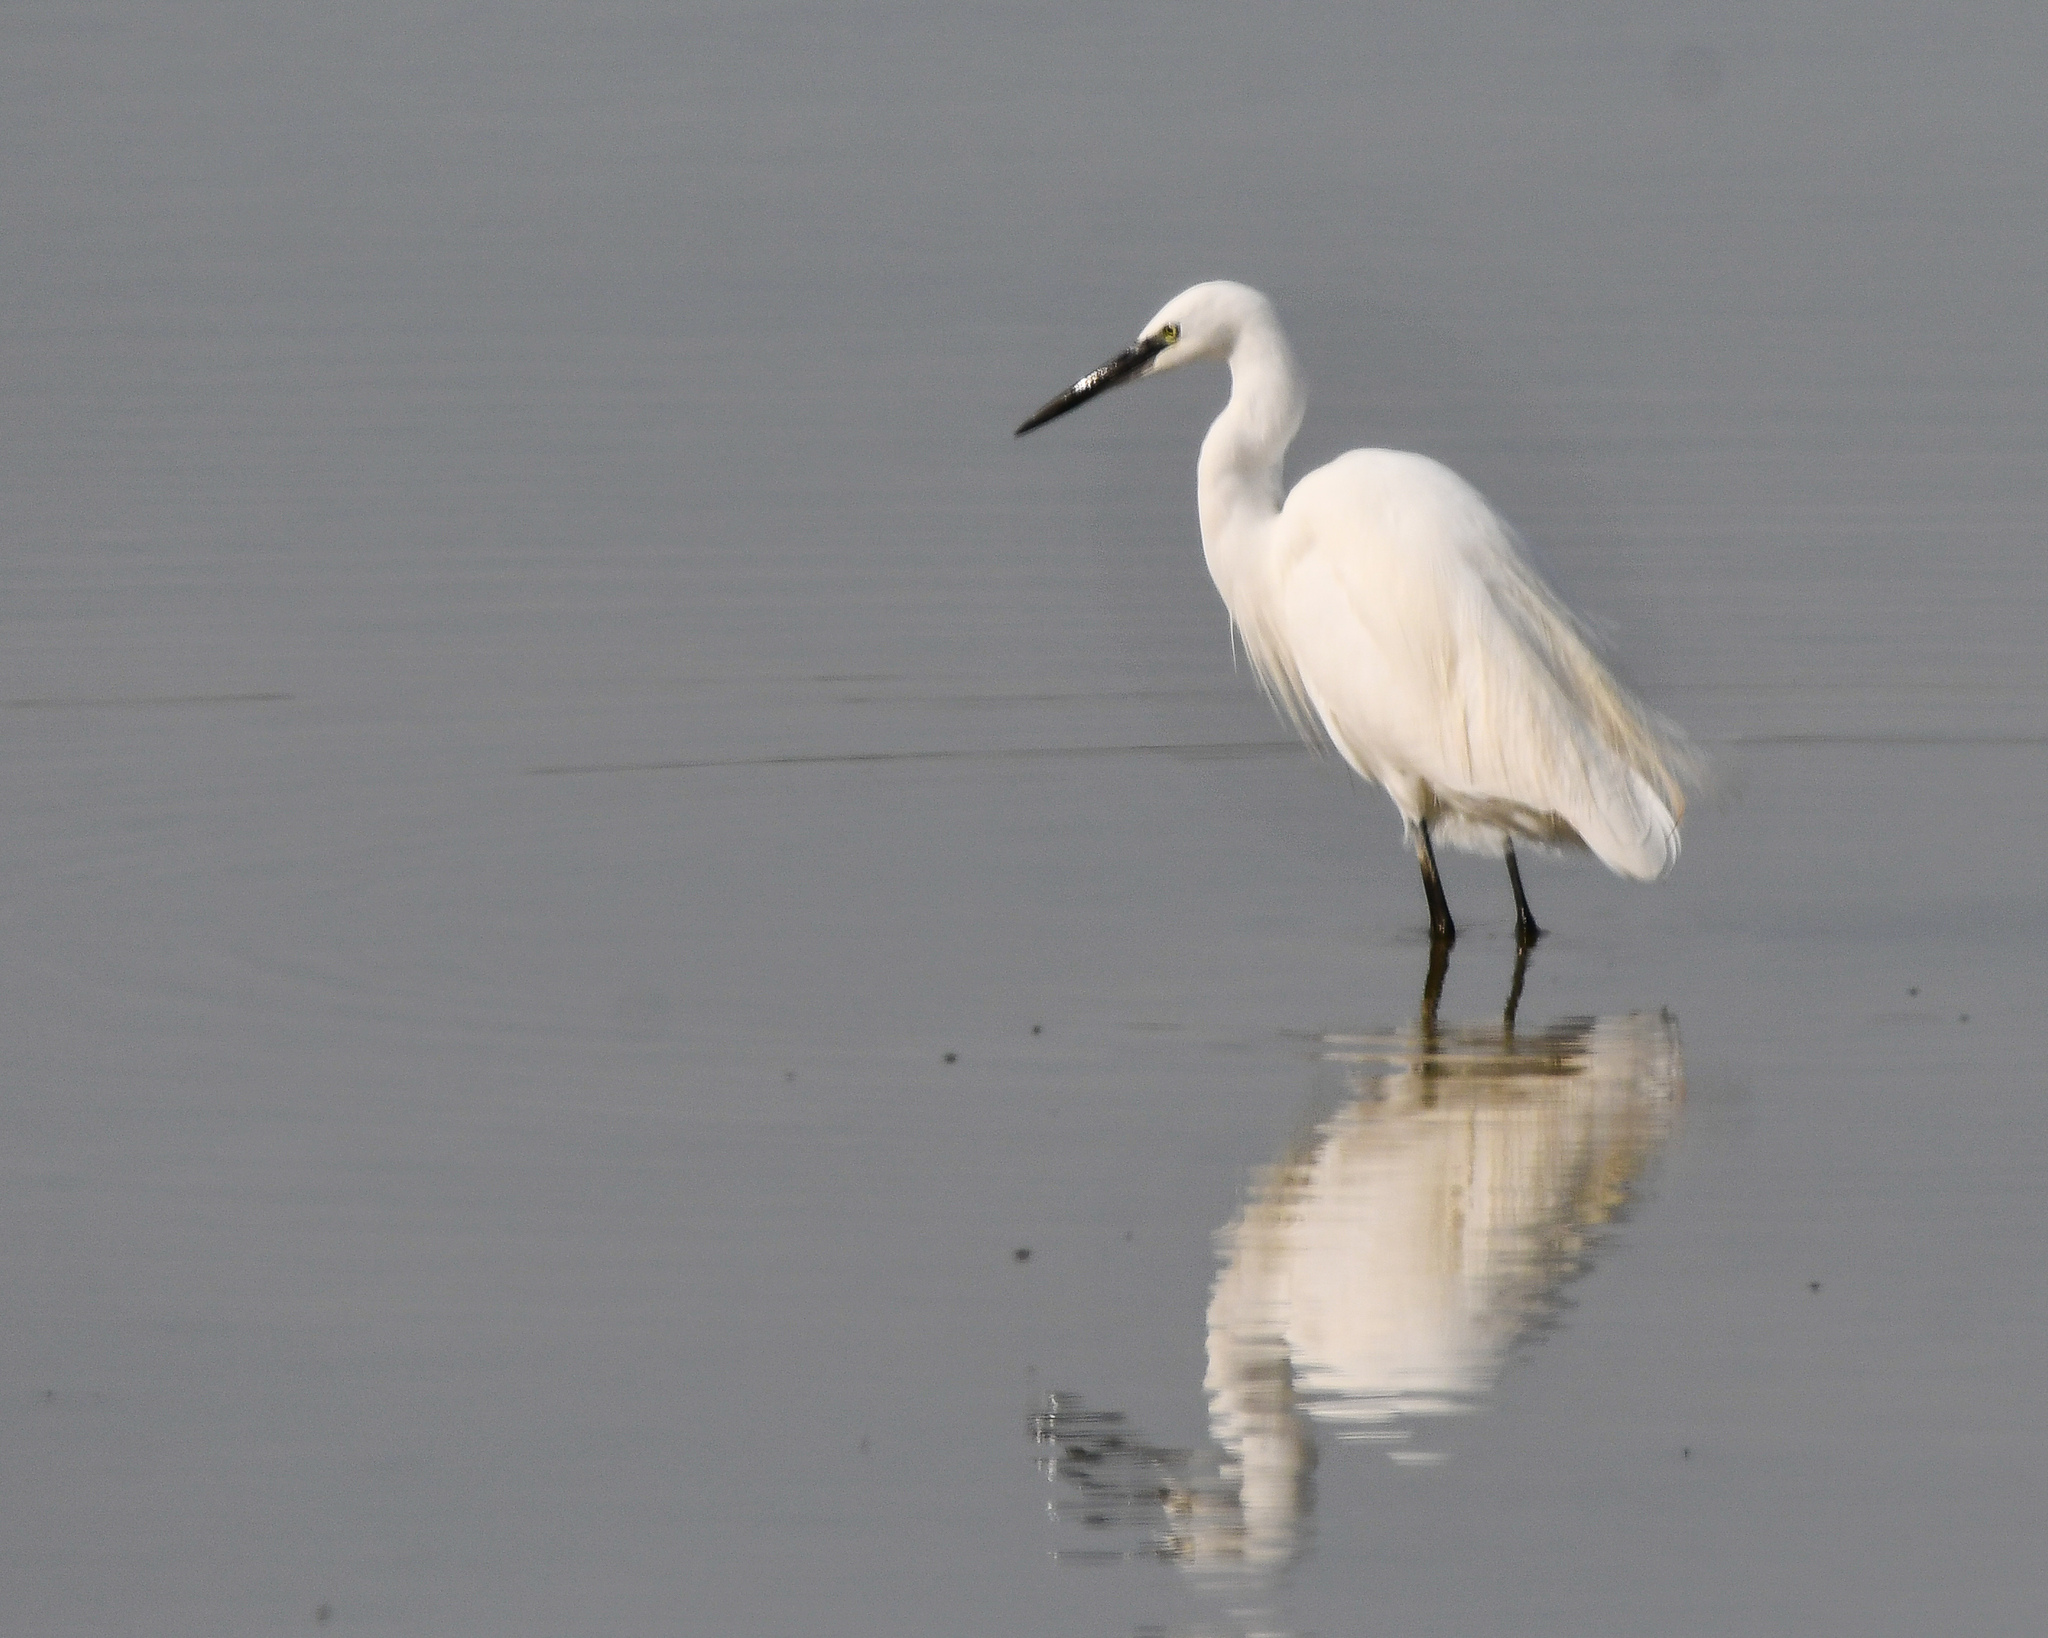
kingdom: Animalia
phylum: Chordata
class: Aves
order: Pelecaniformes
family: Ardeidae
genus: Egretta
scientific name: Egretta garzetta
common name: Little egret
